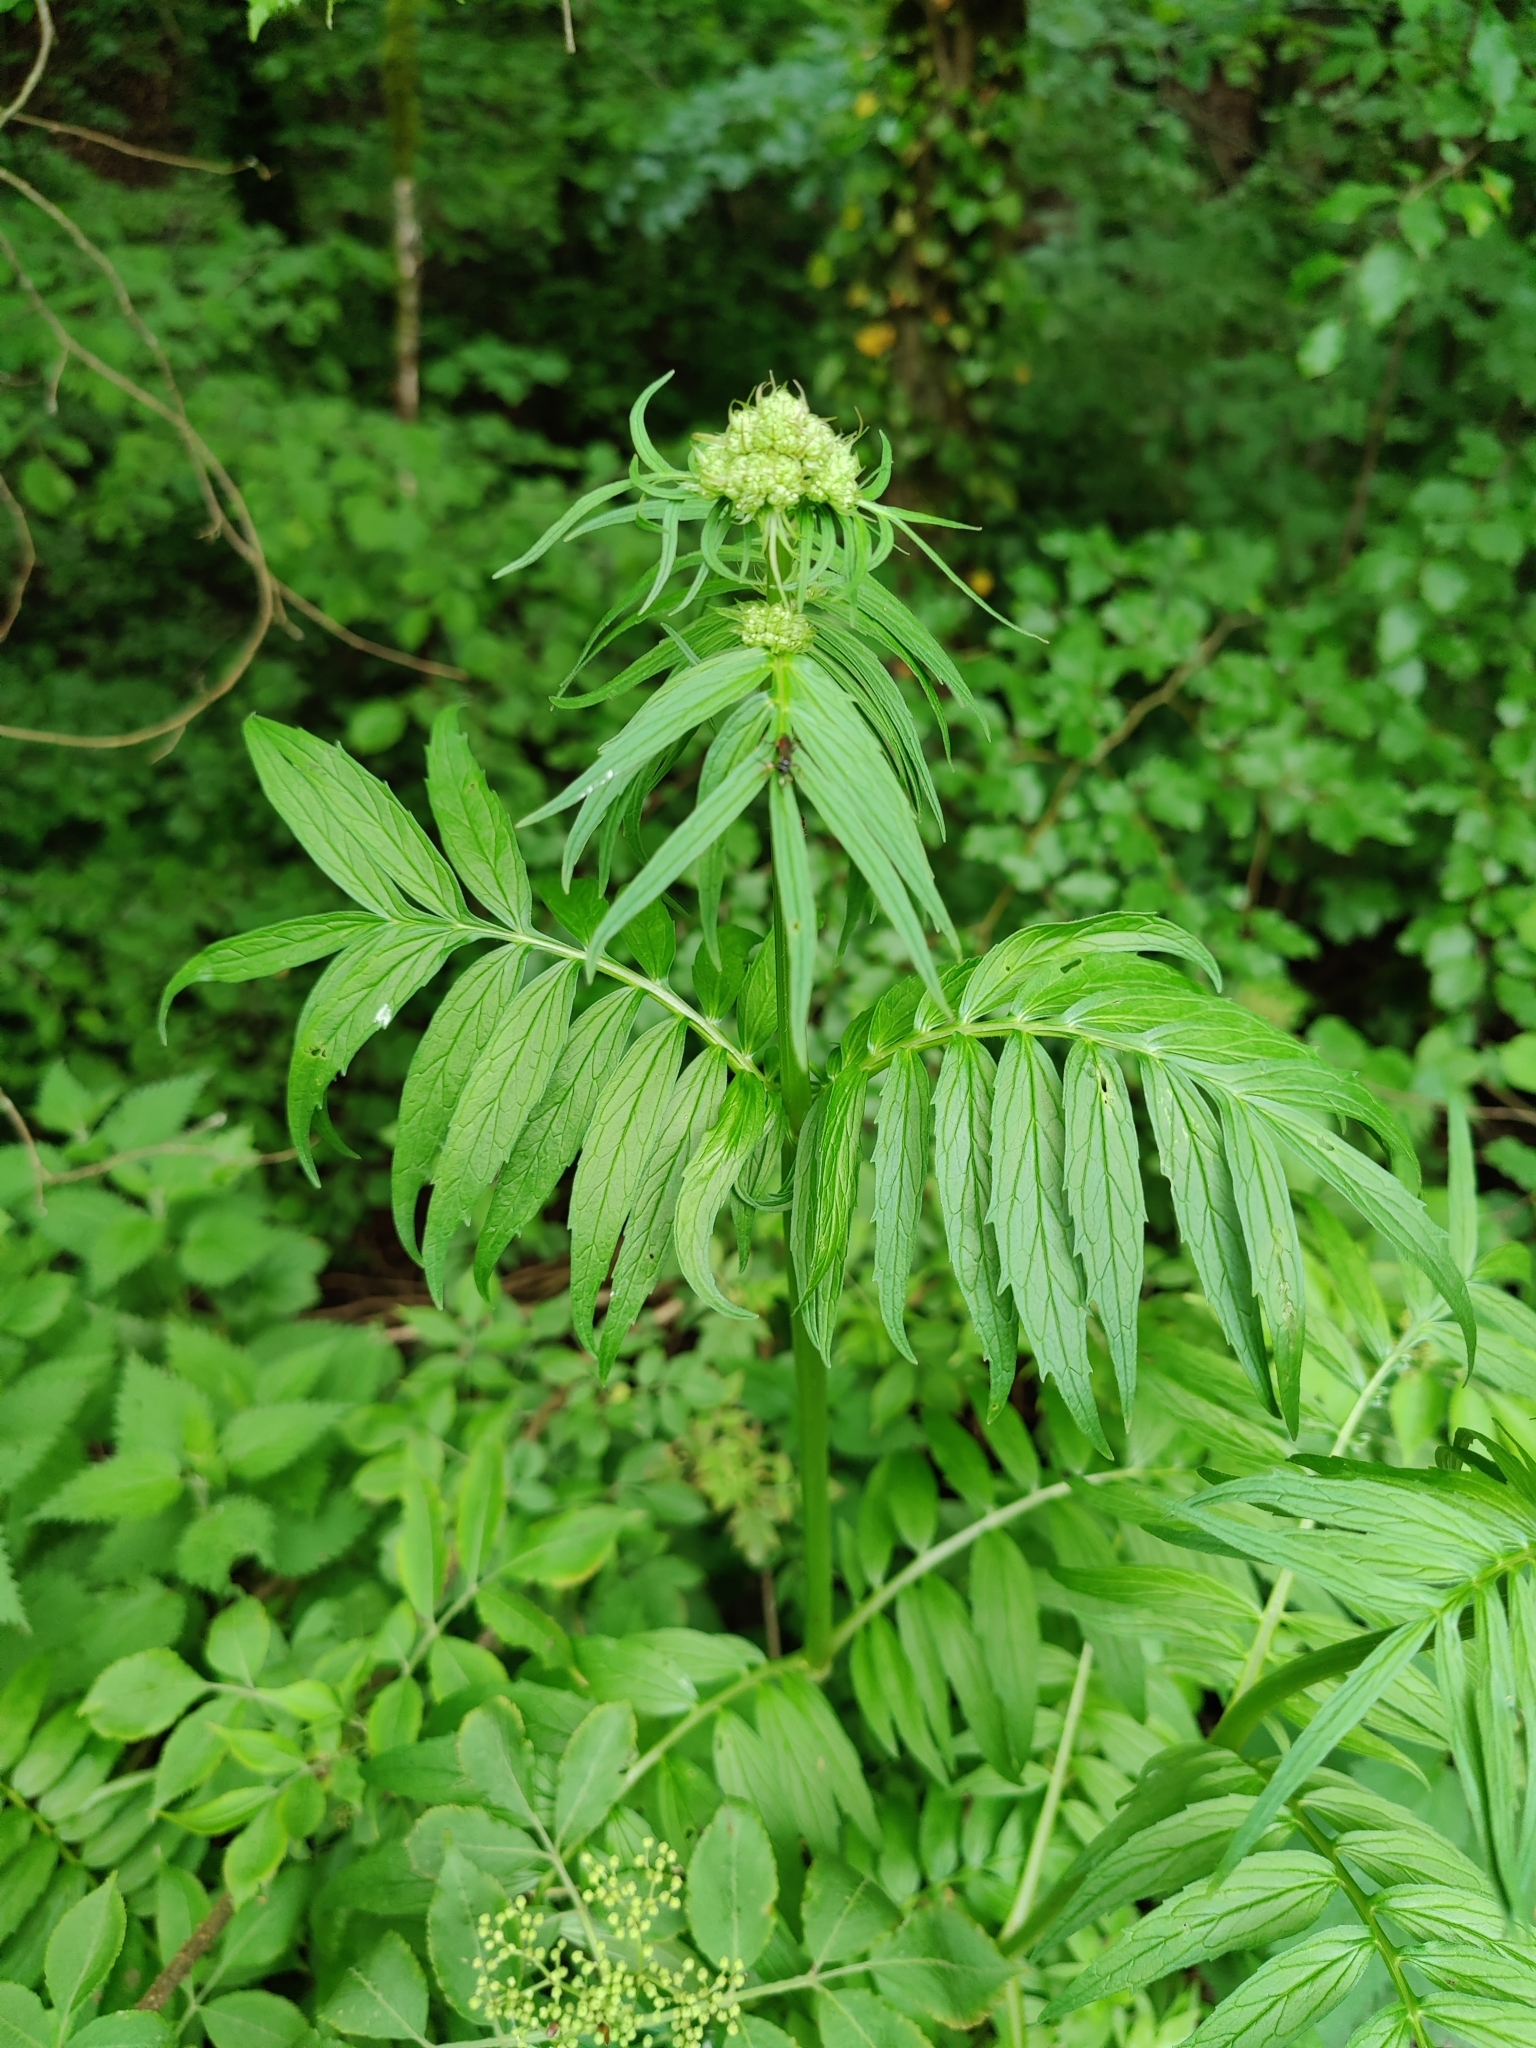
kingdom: Plantae
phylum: Tracheophyta
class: Magnoliopsida
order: Dipsacales
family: Caprifoliaceae
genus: Valeriana
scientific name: Valeriana officinalis
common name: Common valerian
